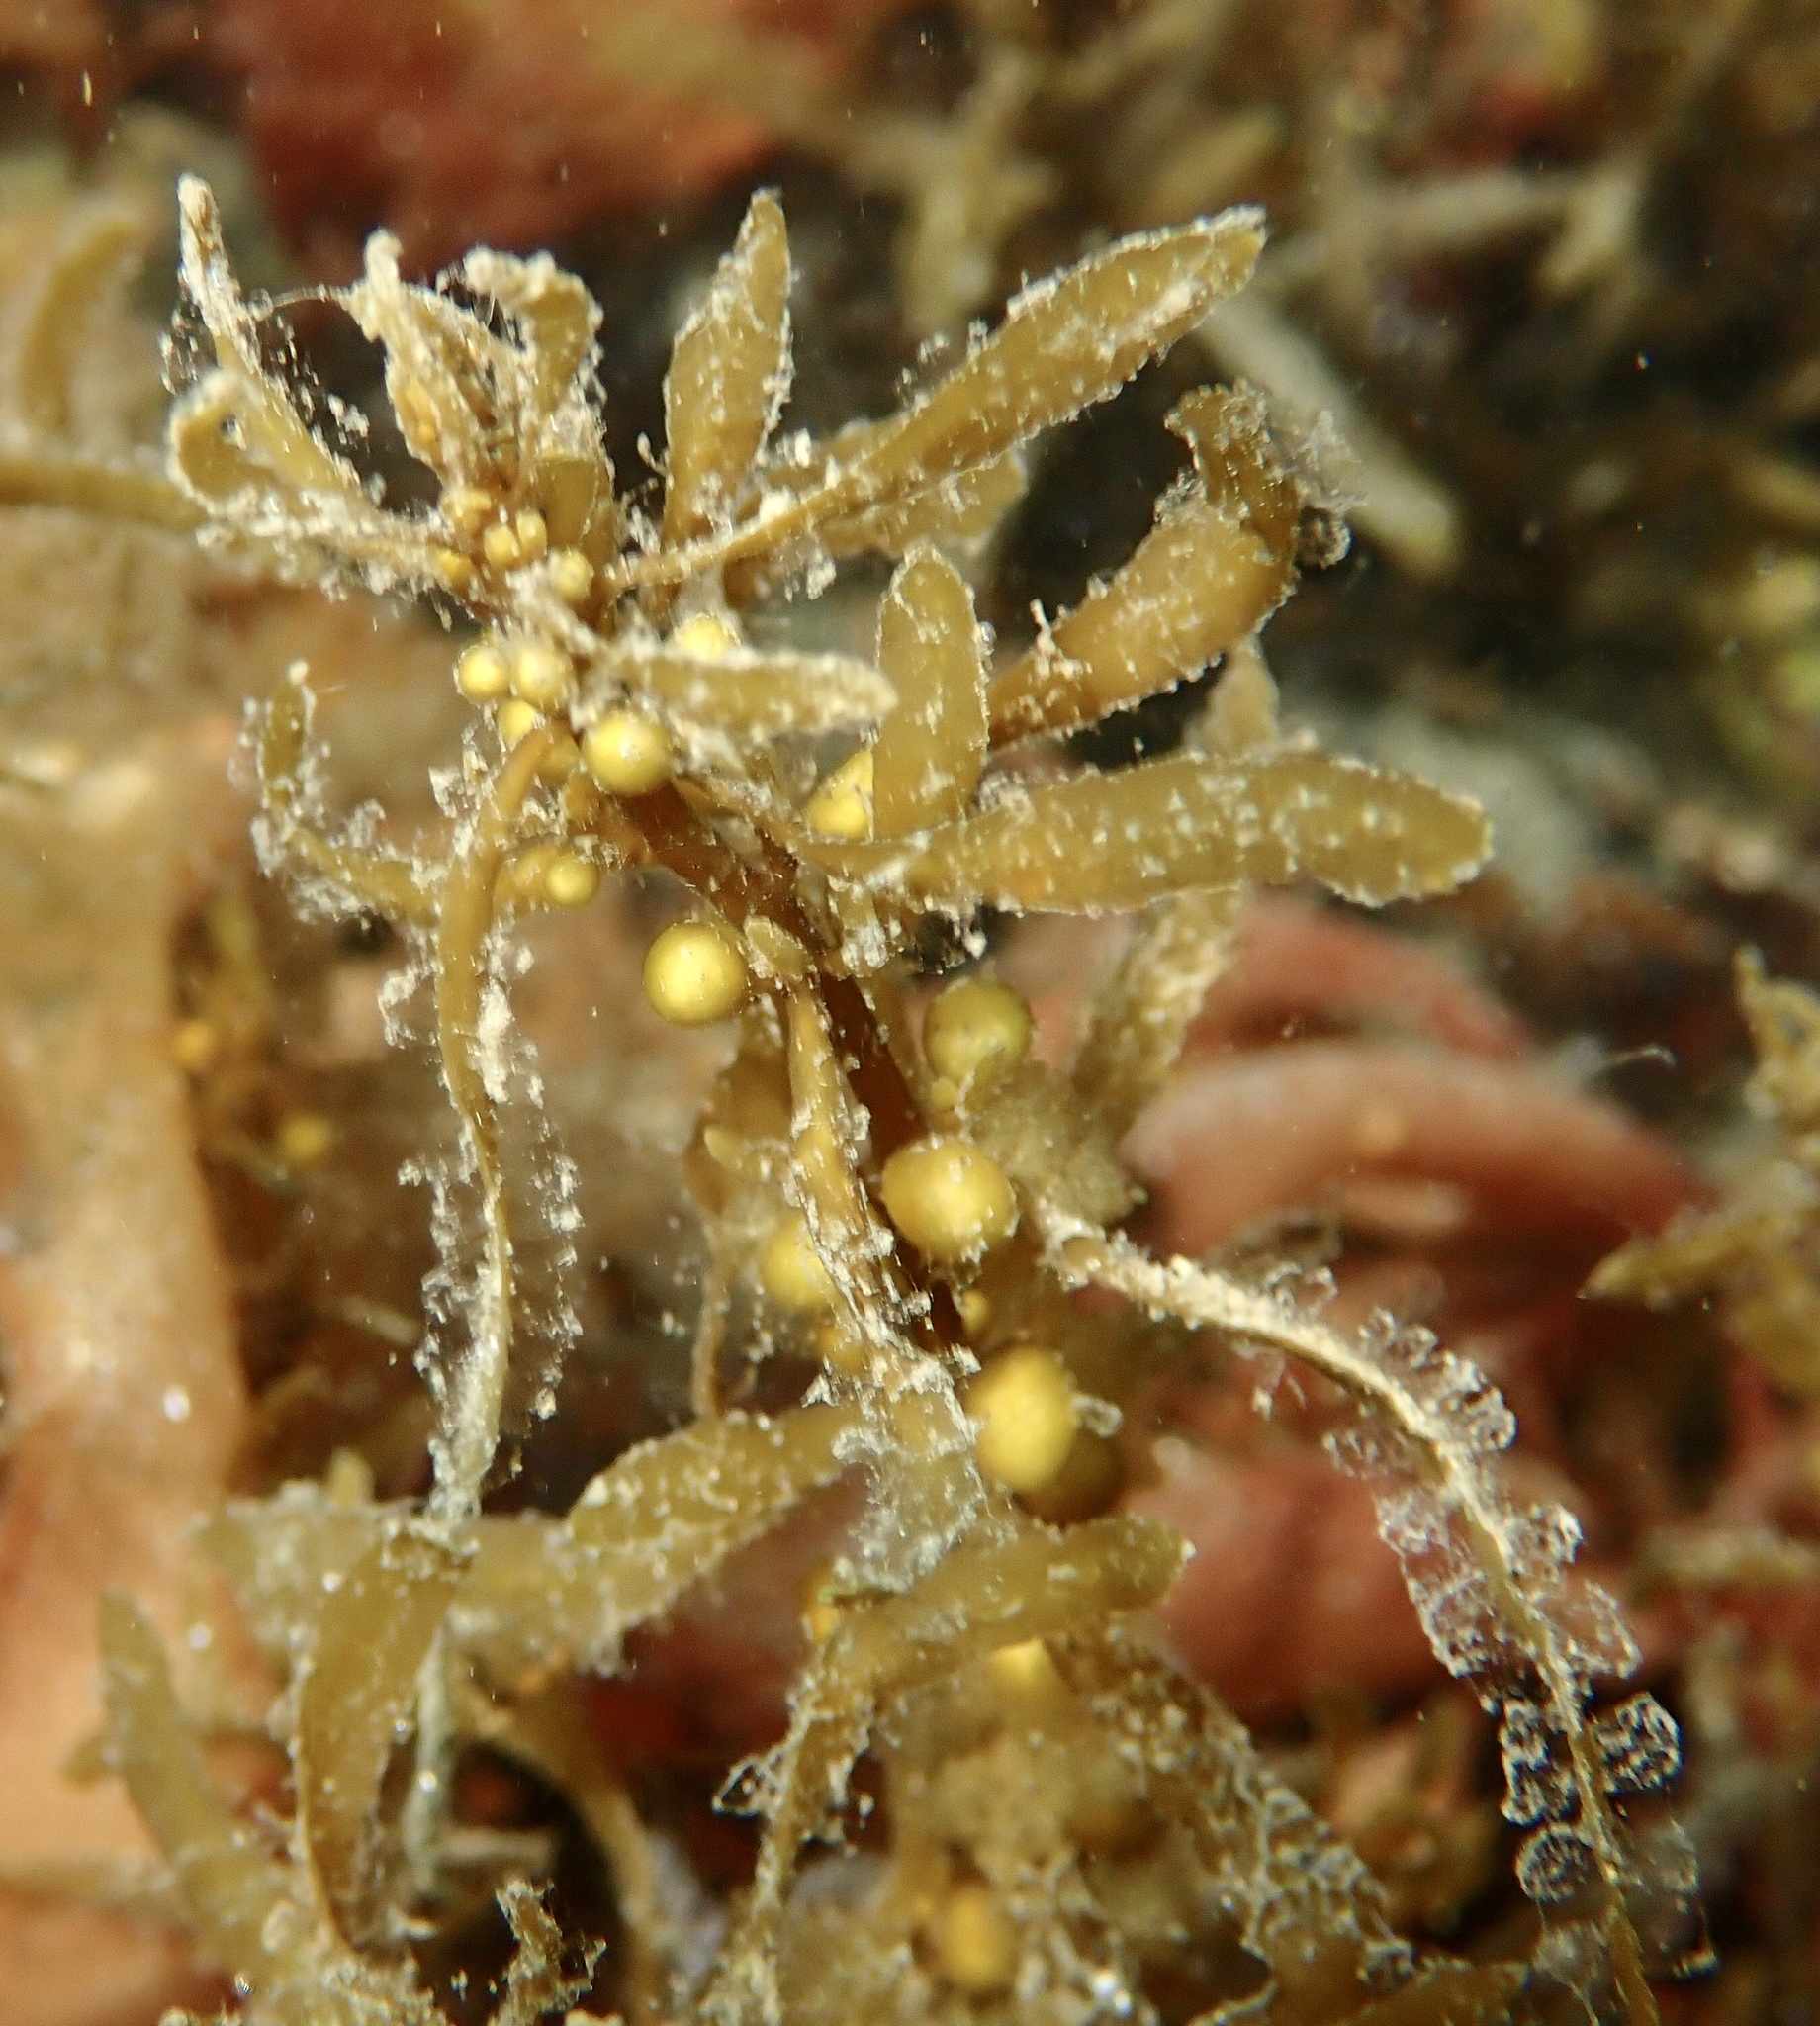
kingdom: Chromista
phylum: Ochrophyta
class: Phaeophyceae
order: Fucales
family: Sargassaceae
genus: Sargassum
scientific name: Sargassum muticum
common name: Japweed
